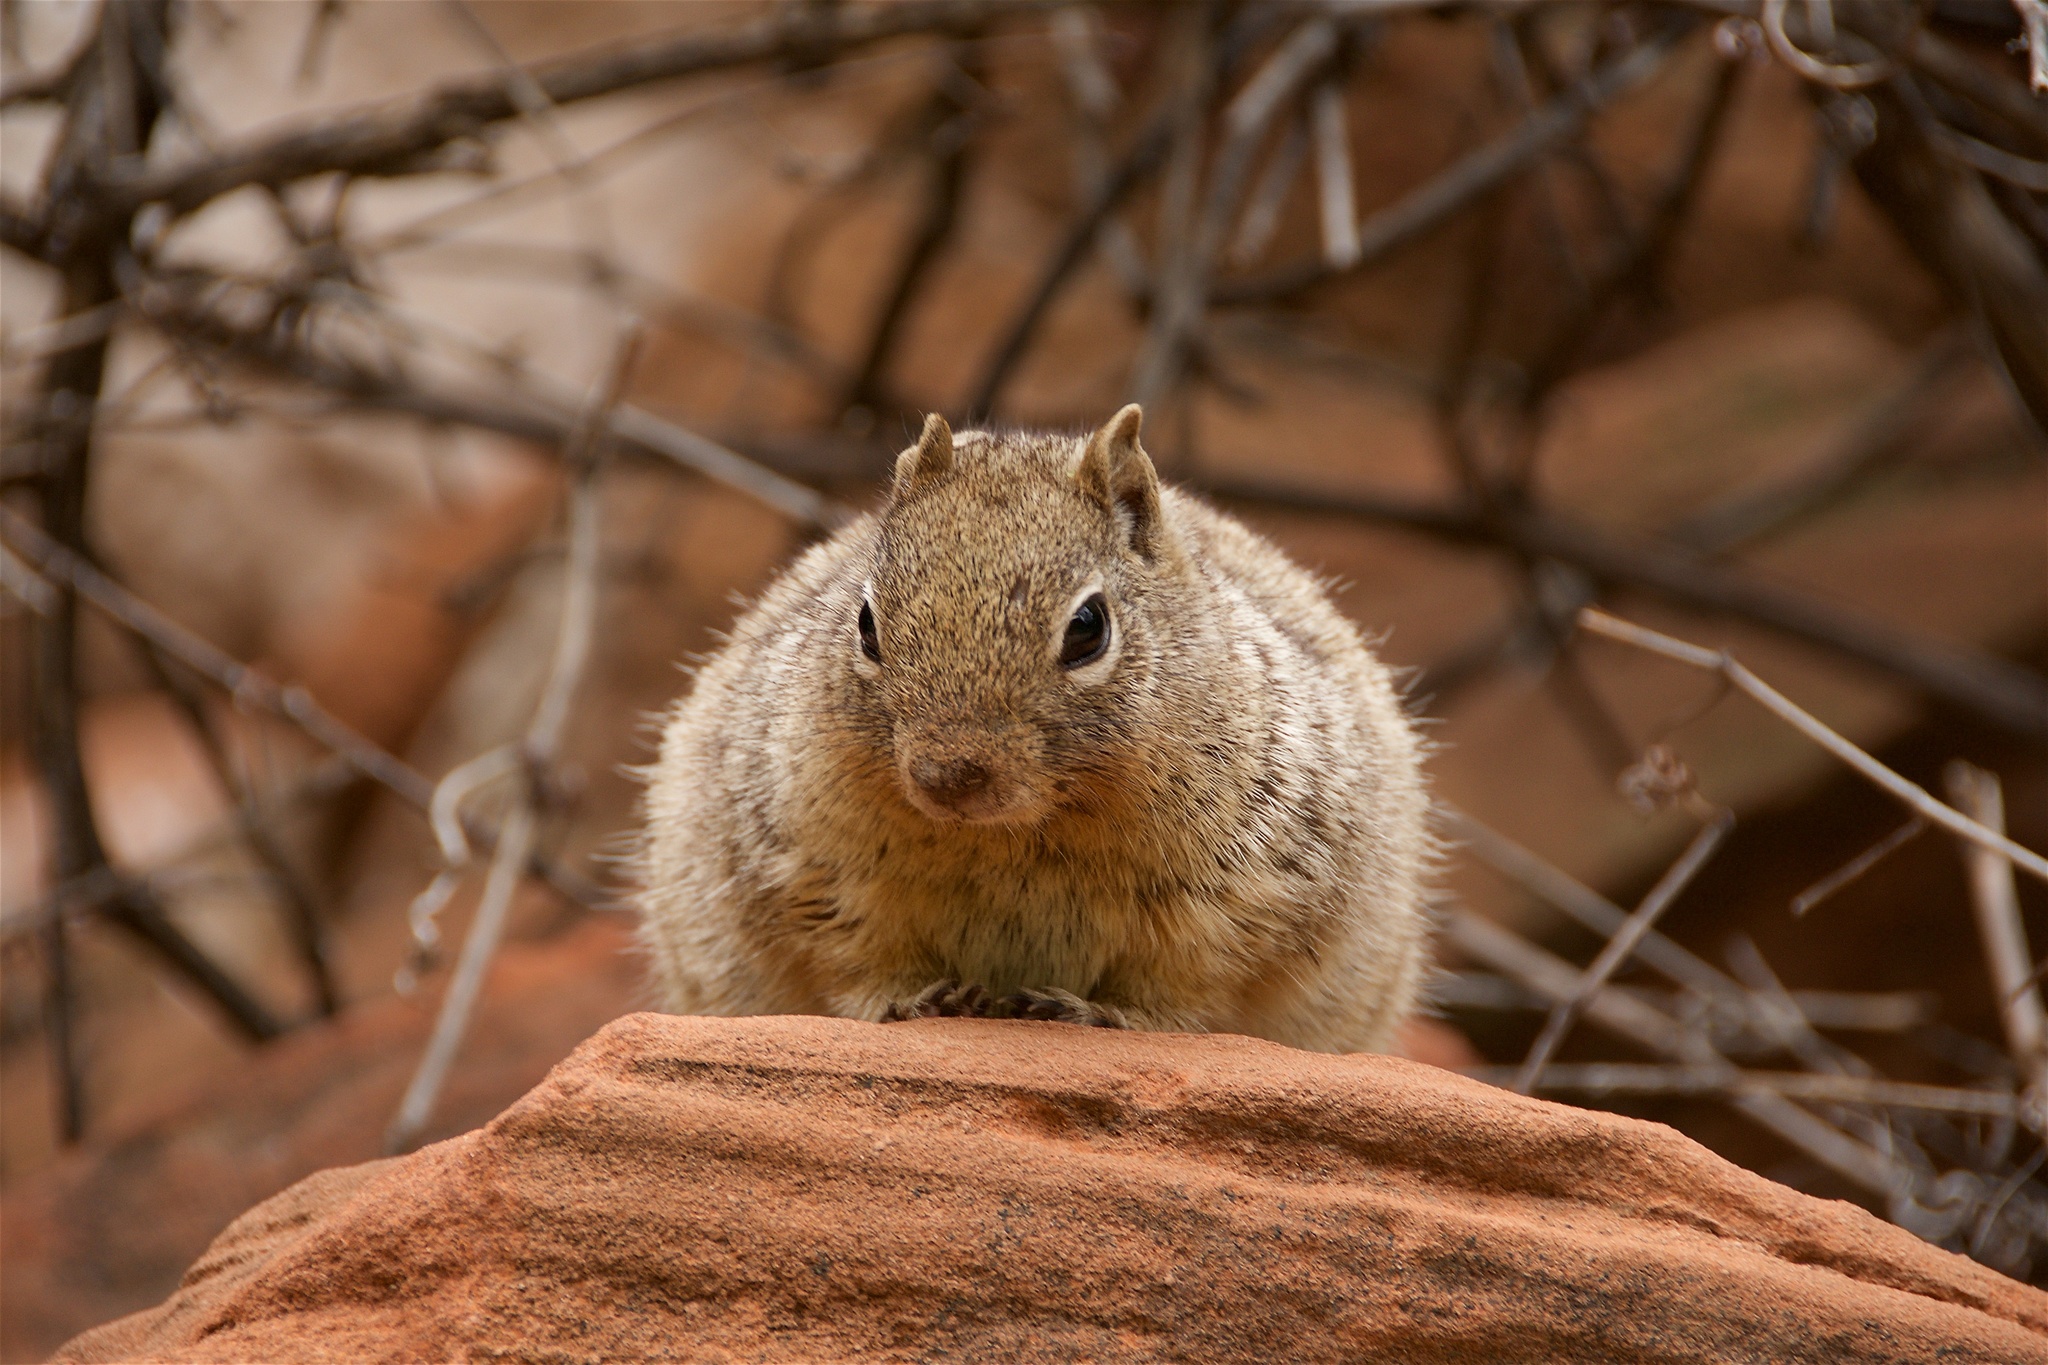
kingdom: Animalia
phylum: Chordata
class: Mammalia
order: Rodentia
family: Sciuridae
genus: Otospermophilus
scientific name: Otospermophilus variegatus
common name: Rock squirrel
